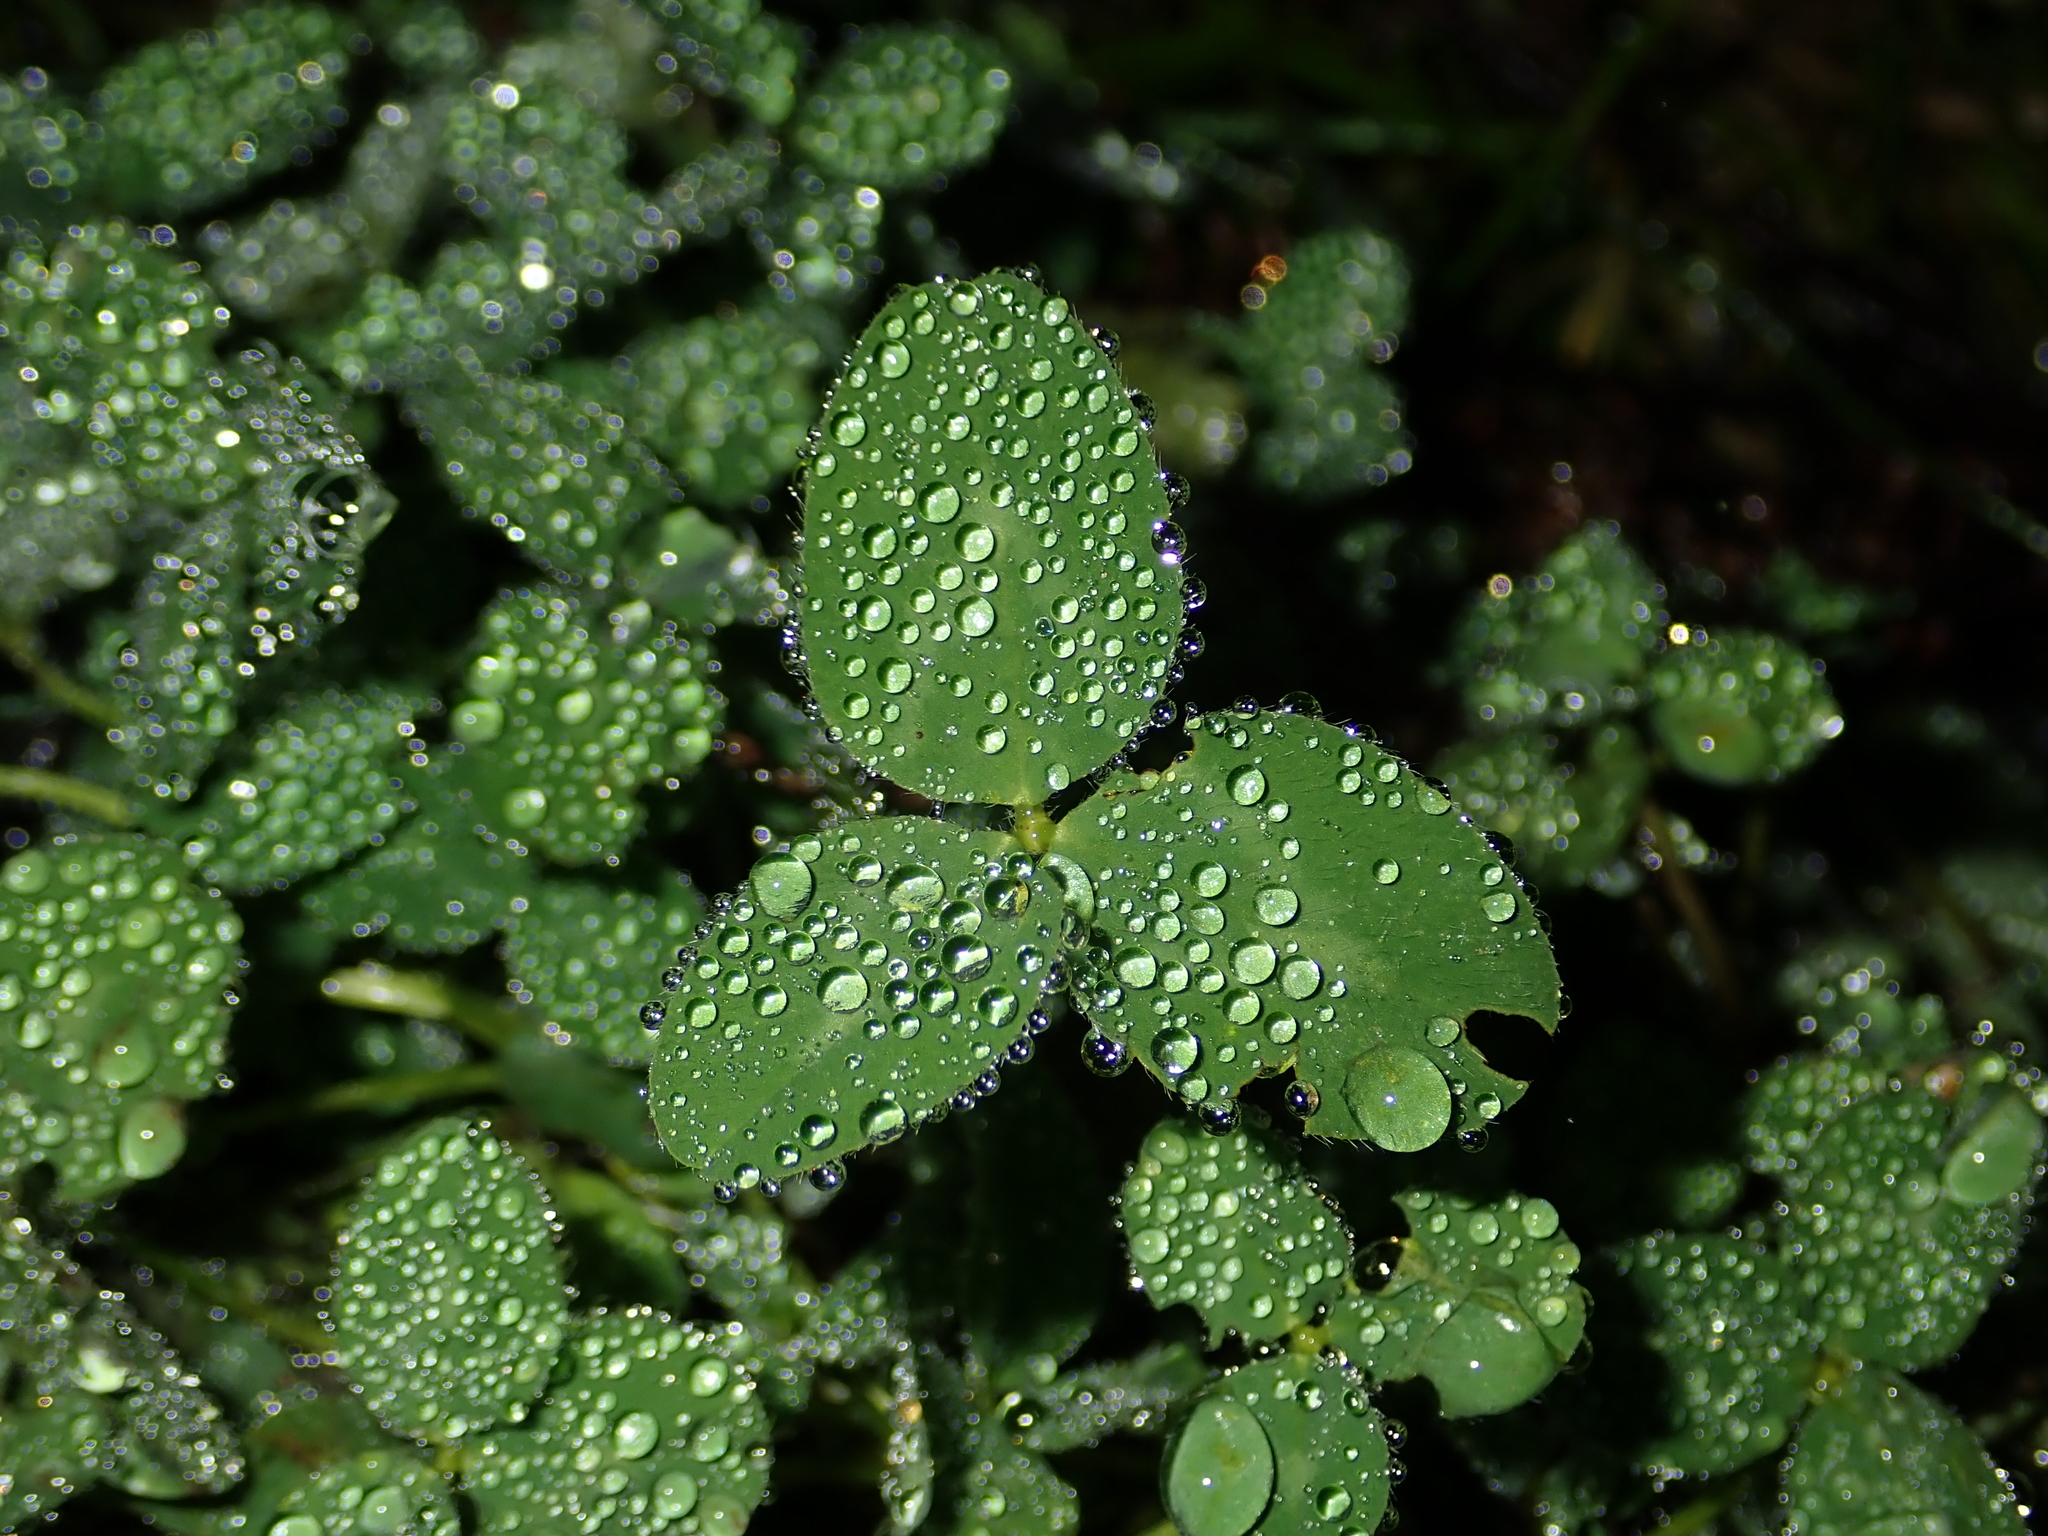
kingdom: Plantae
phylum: Tracheophyta
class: Magnoliopsida
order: Fabales
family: Fabaceae
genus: Trifolium
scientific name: Trifolium repens
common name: White clover
